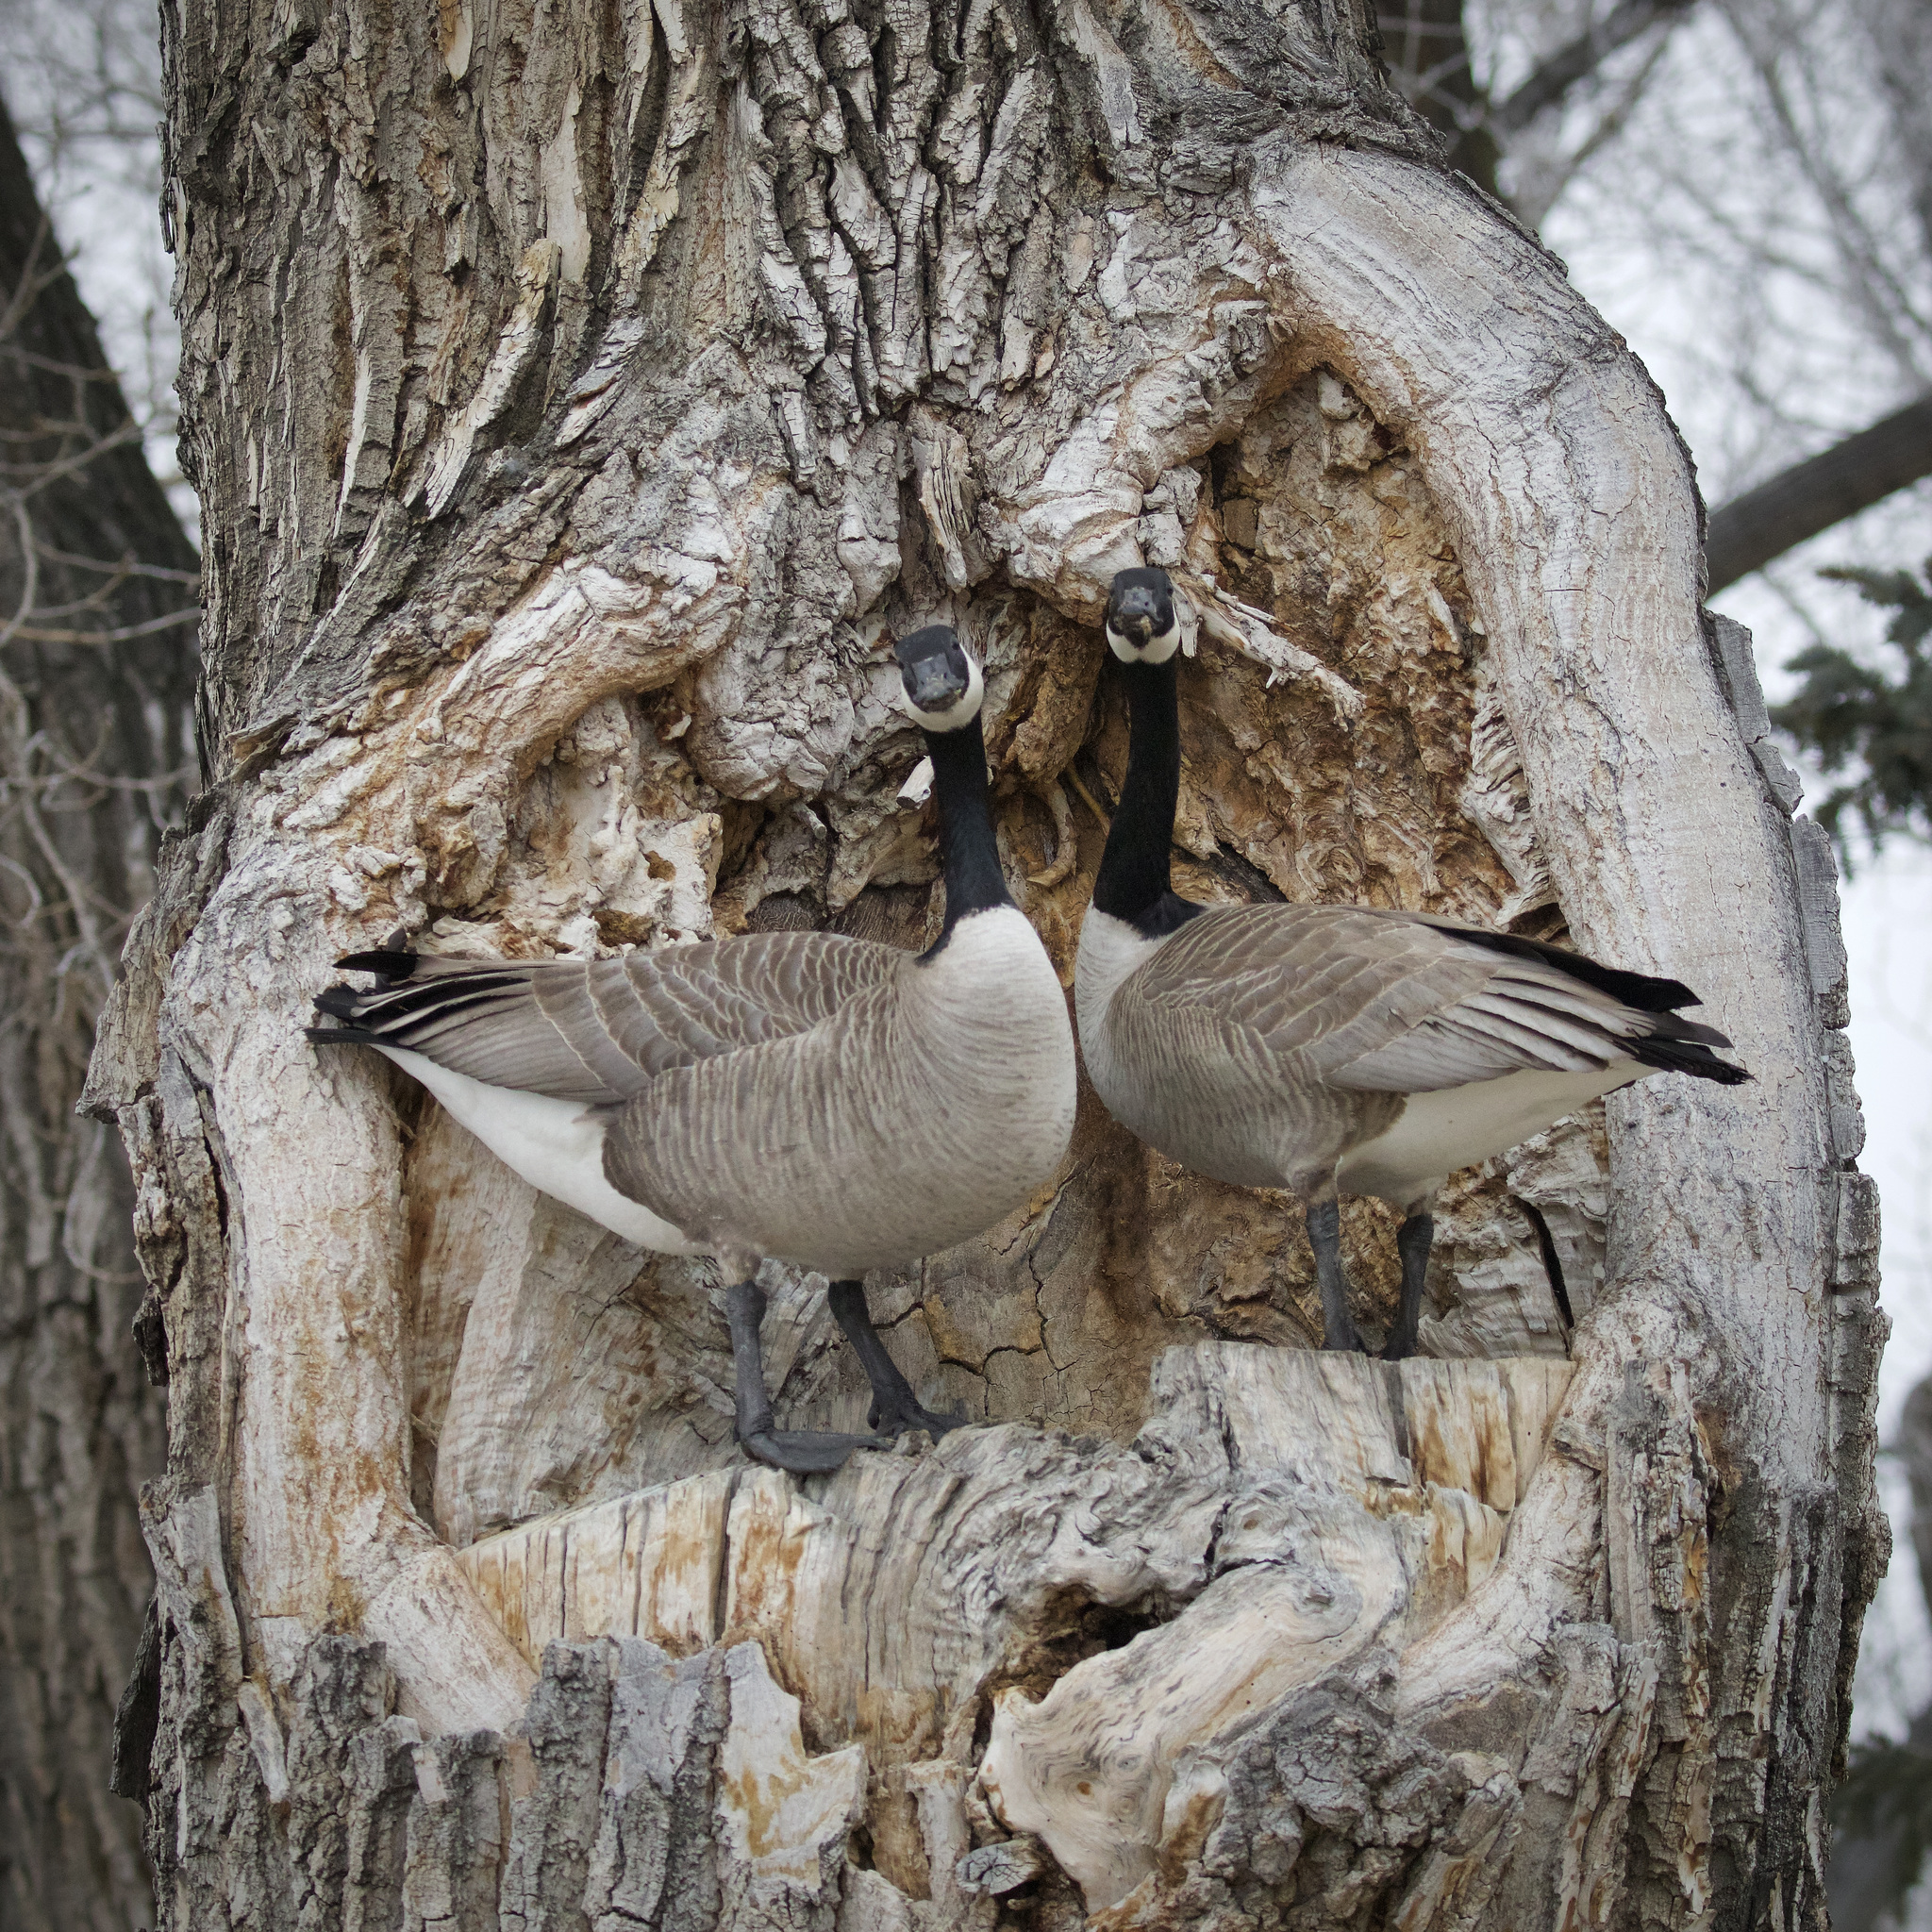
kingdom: Animalia
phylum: Chordata
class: Aves
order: Anseriformes
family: Anatidae
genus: Branta
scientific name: Branta canadensis
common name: Canada goose
